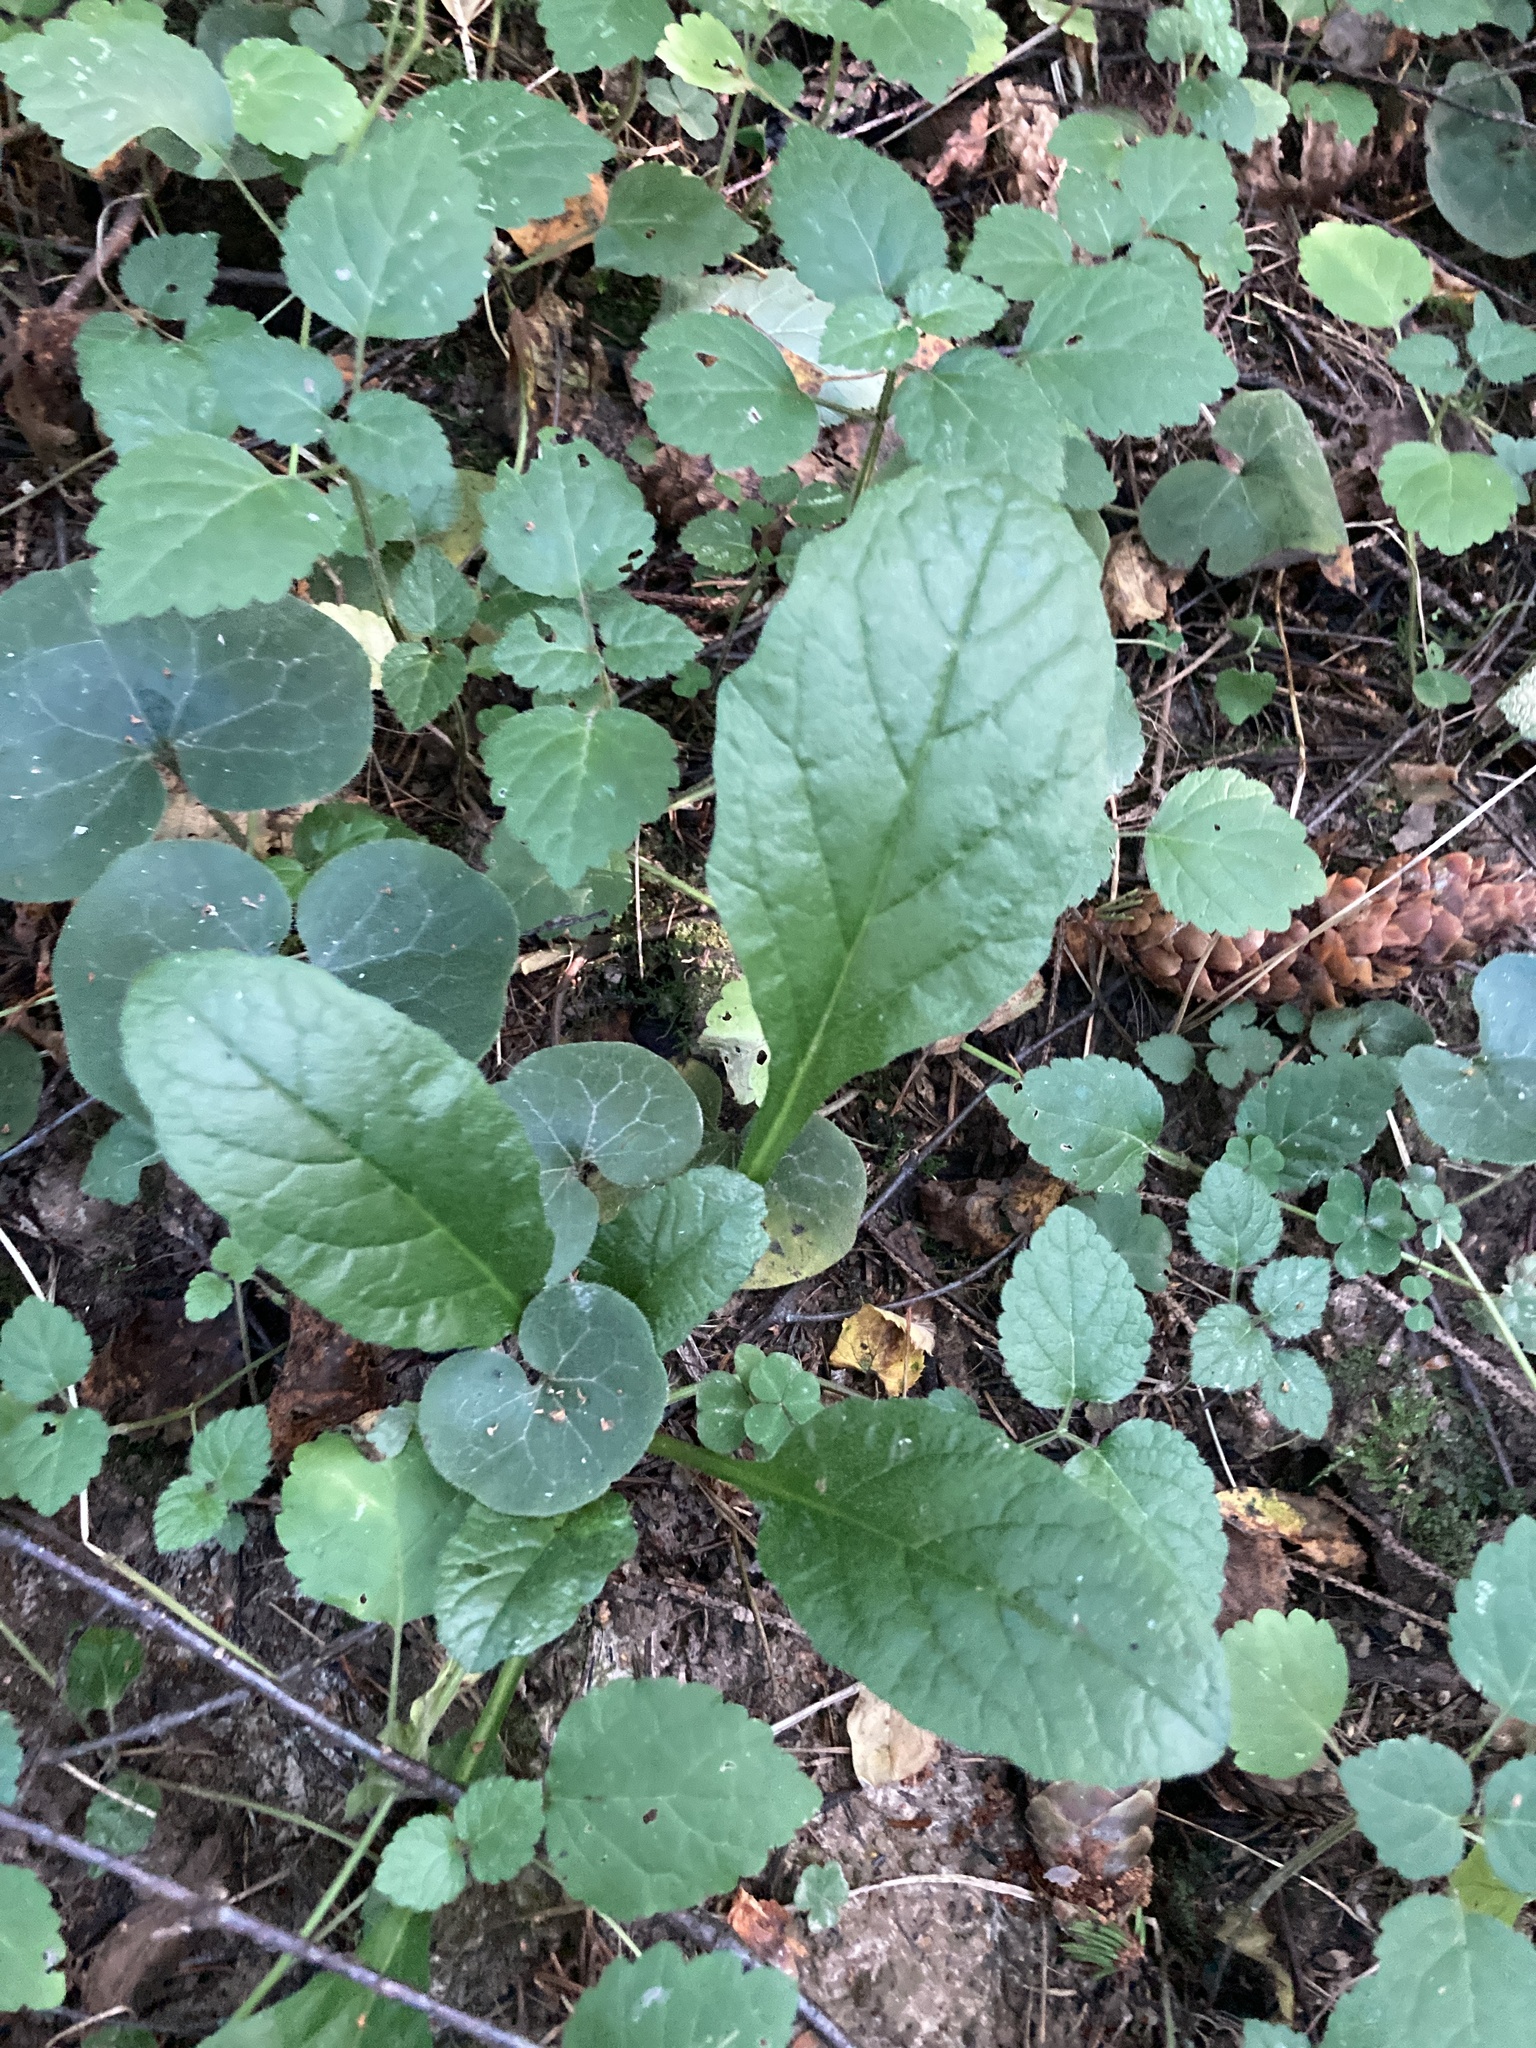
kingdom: Plantae
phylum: Tracheophyta
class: Magnoliopsida
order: Lamiales
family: Lamiaceae
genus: Ajuga
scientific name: Ajuga reptans
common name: Bugle
